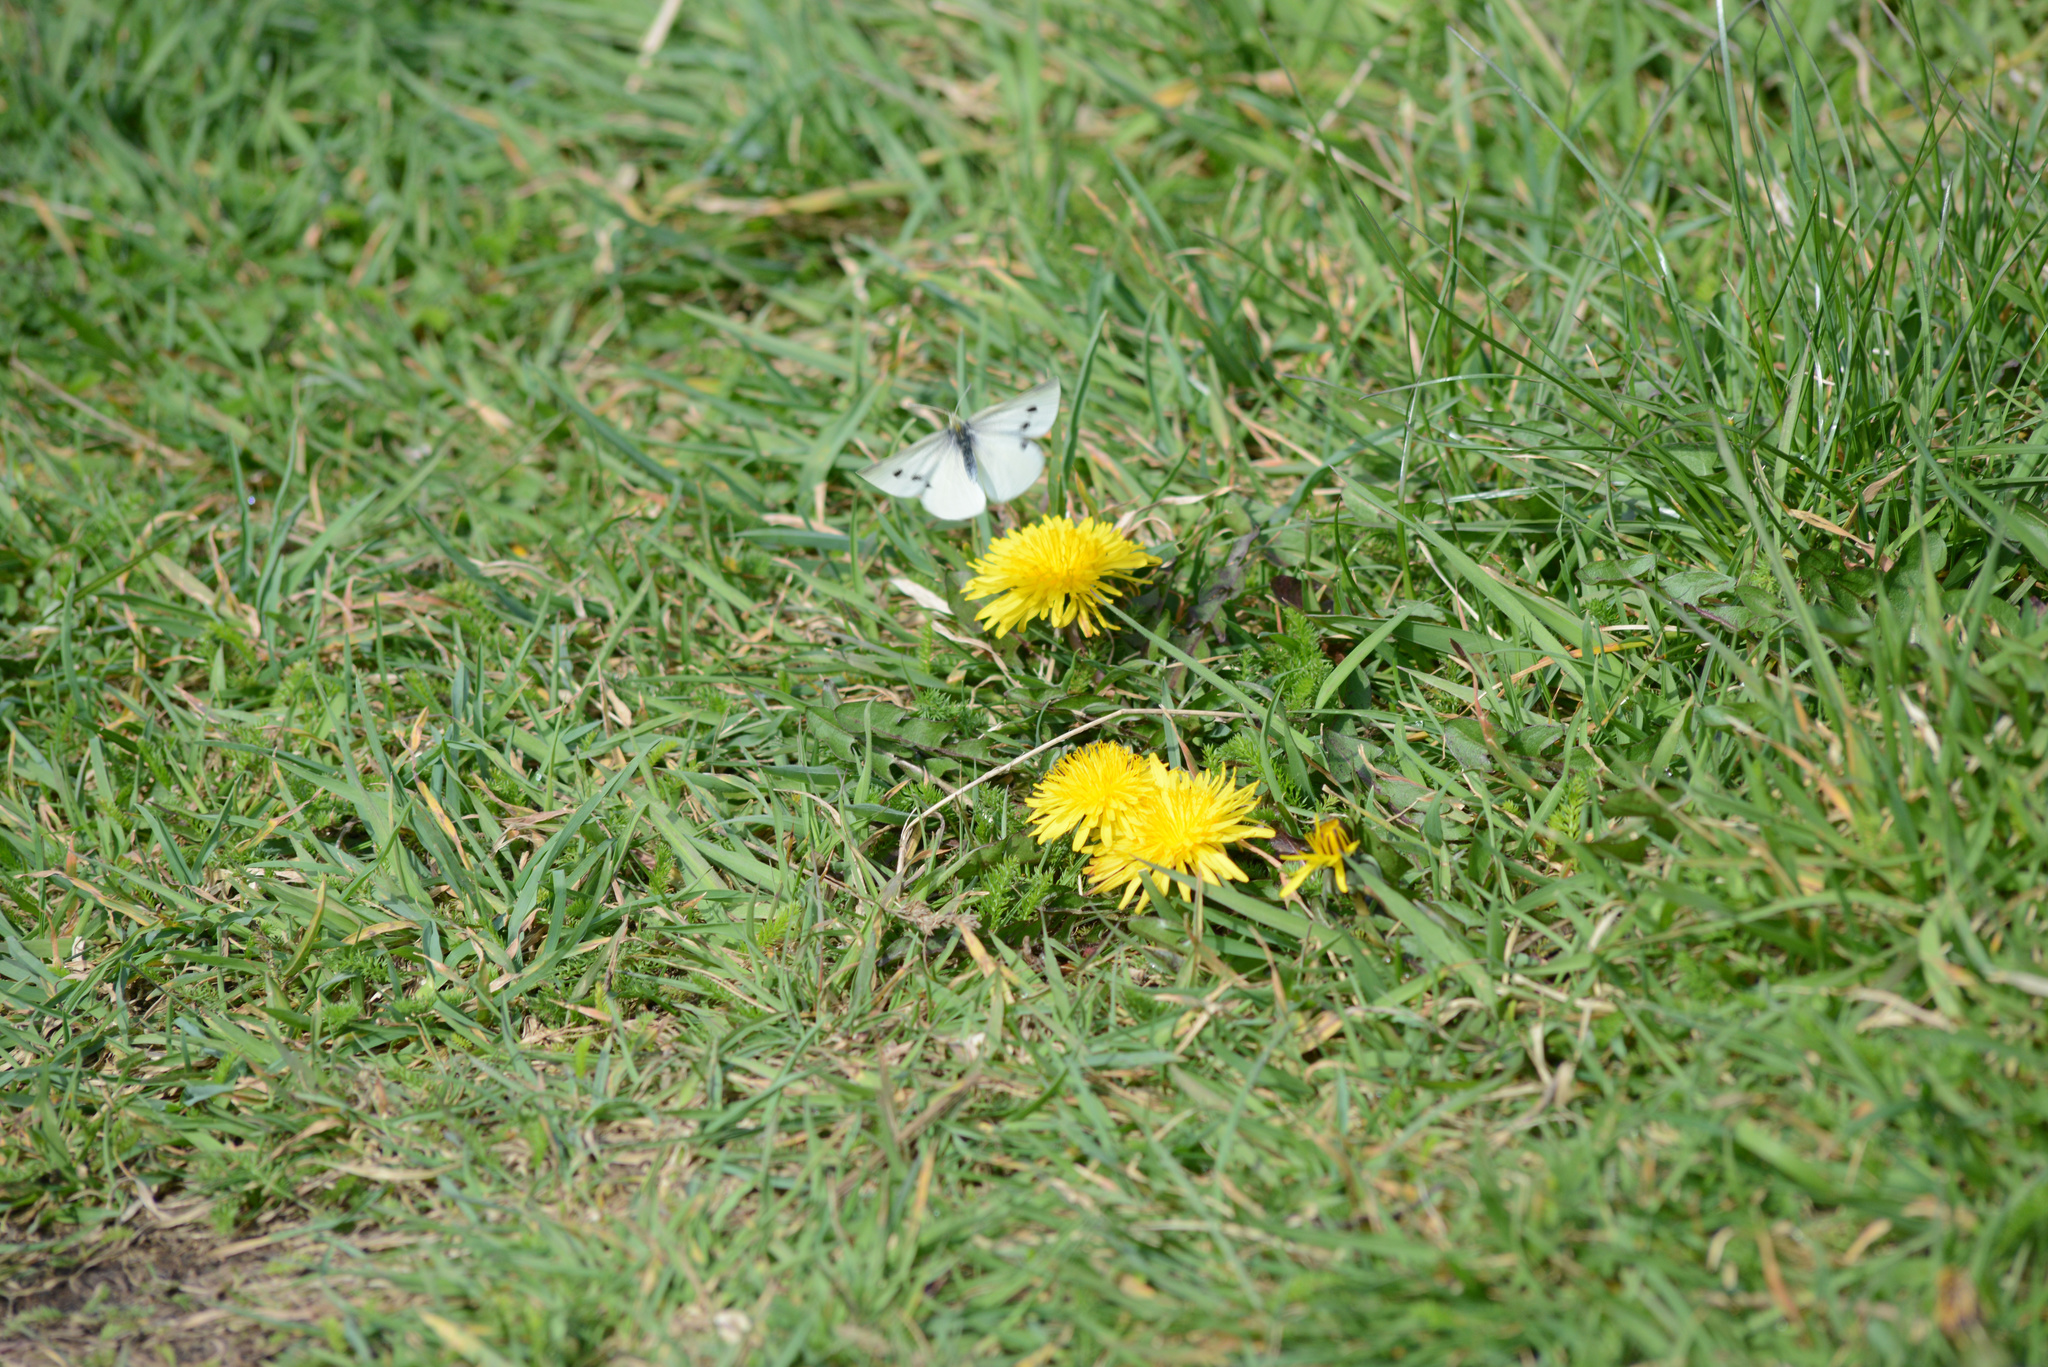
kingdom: Animalia
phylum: Arthropoda
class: Insecta
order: Lepidoptera
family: Pieridae
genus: Pieris
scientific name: Pieris rapae
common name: Small white
